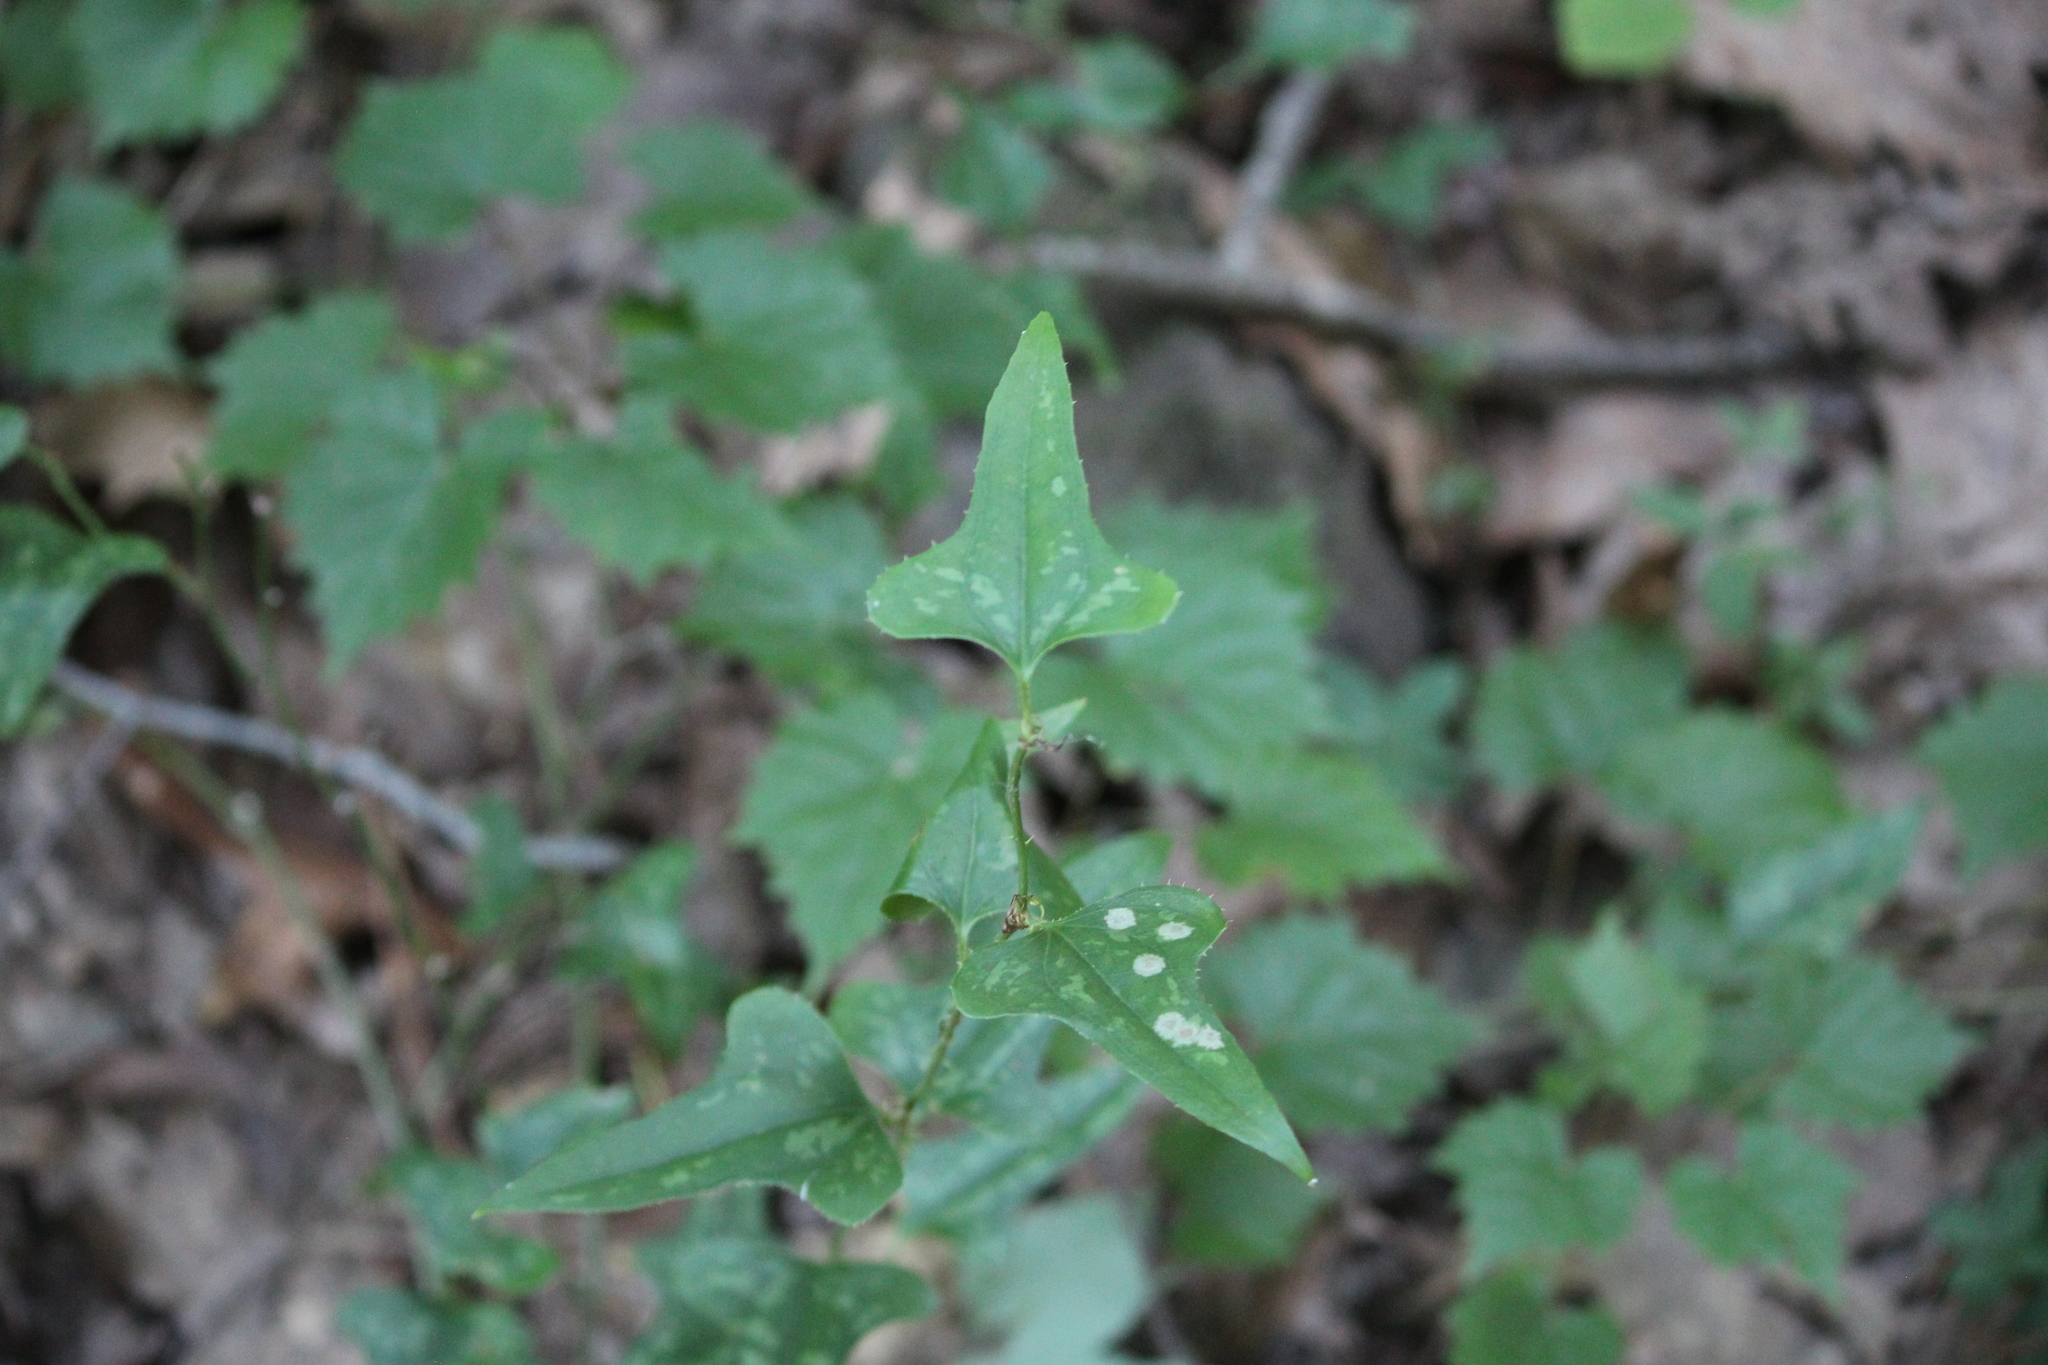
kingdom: Plantae
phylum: Tracheophyta
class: Liliopsida
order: Liliales
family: Smilacaceae
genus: Smilax
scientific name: Smilax bona-nox
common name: Catbrier
